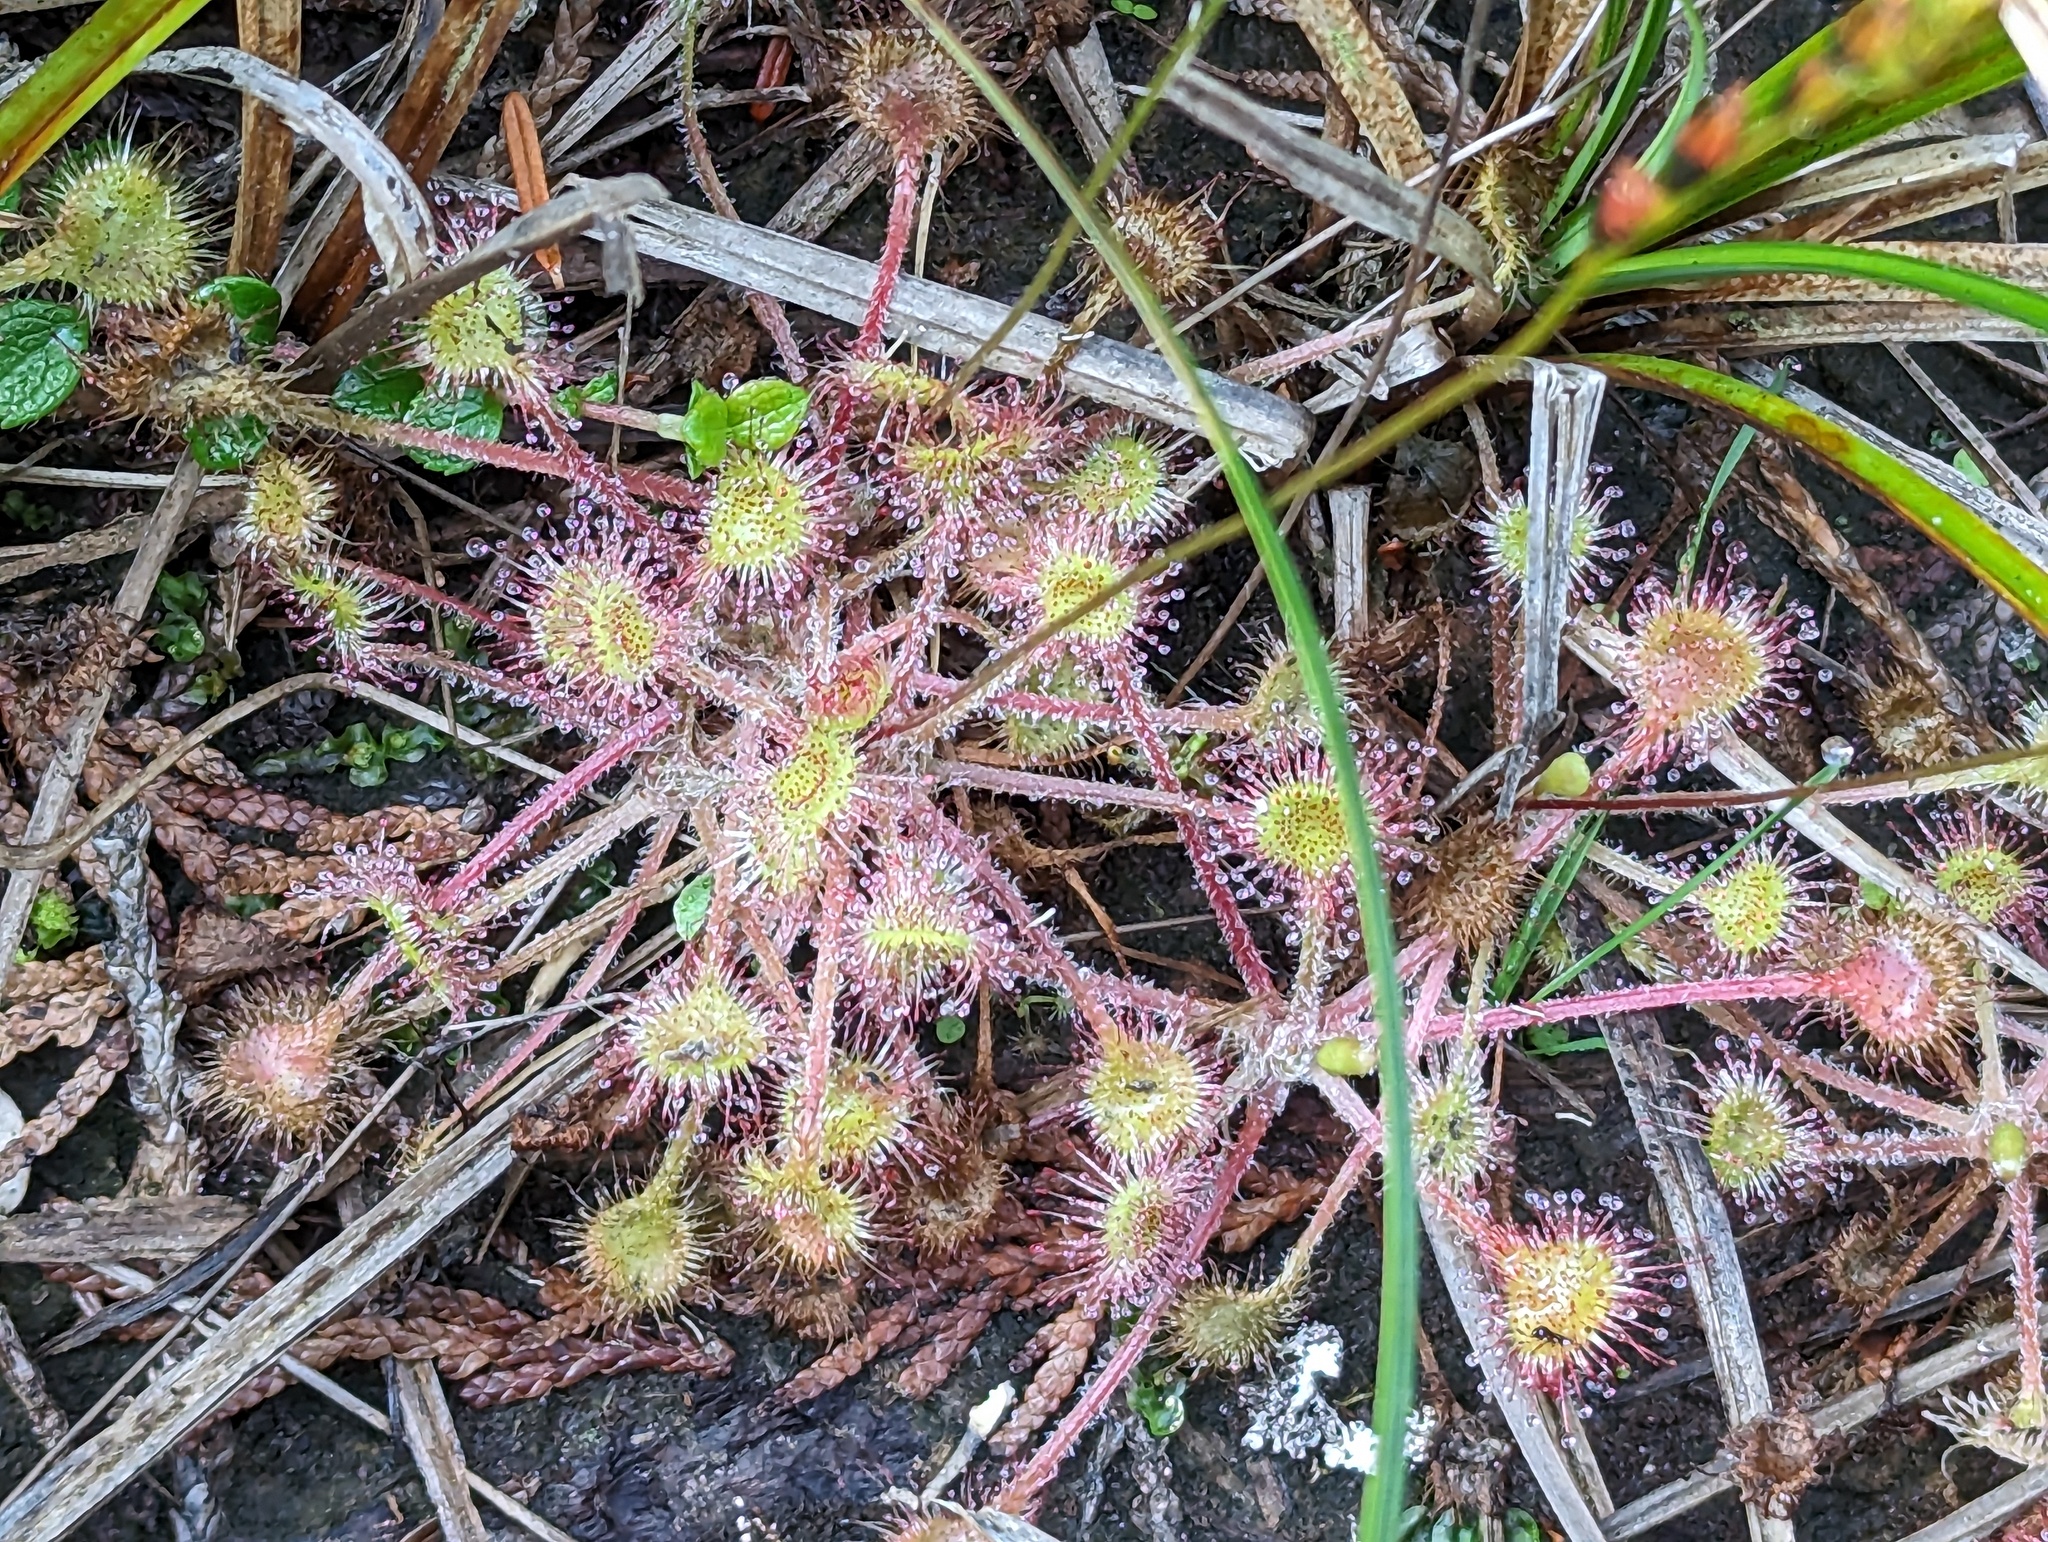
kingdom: Plantae
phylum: Tracheophyta
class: Magnoliopsida
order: Caryophyllales
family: Droseraceae
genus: Drosera
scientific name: Drosera rotundifolia
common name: Round-leaved sundew
